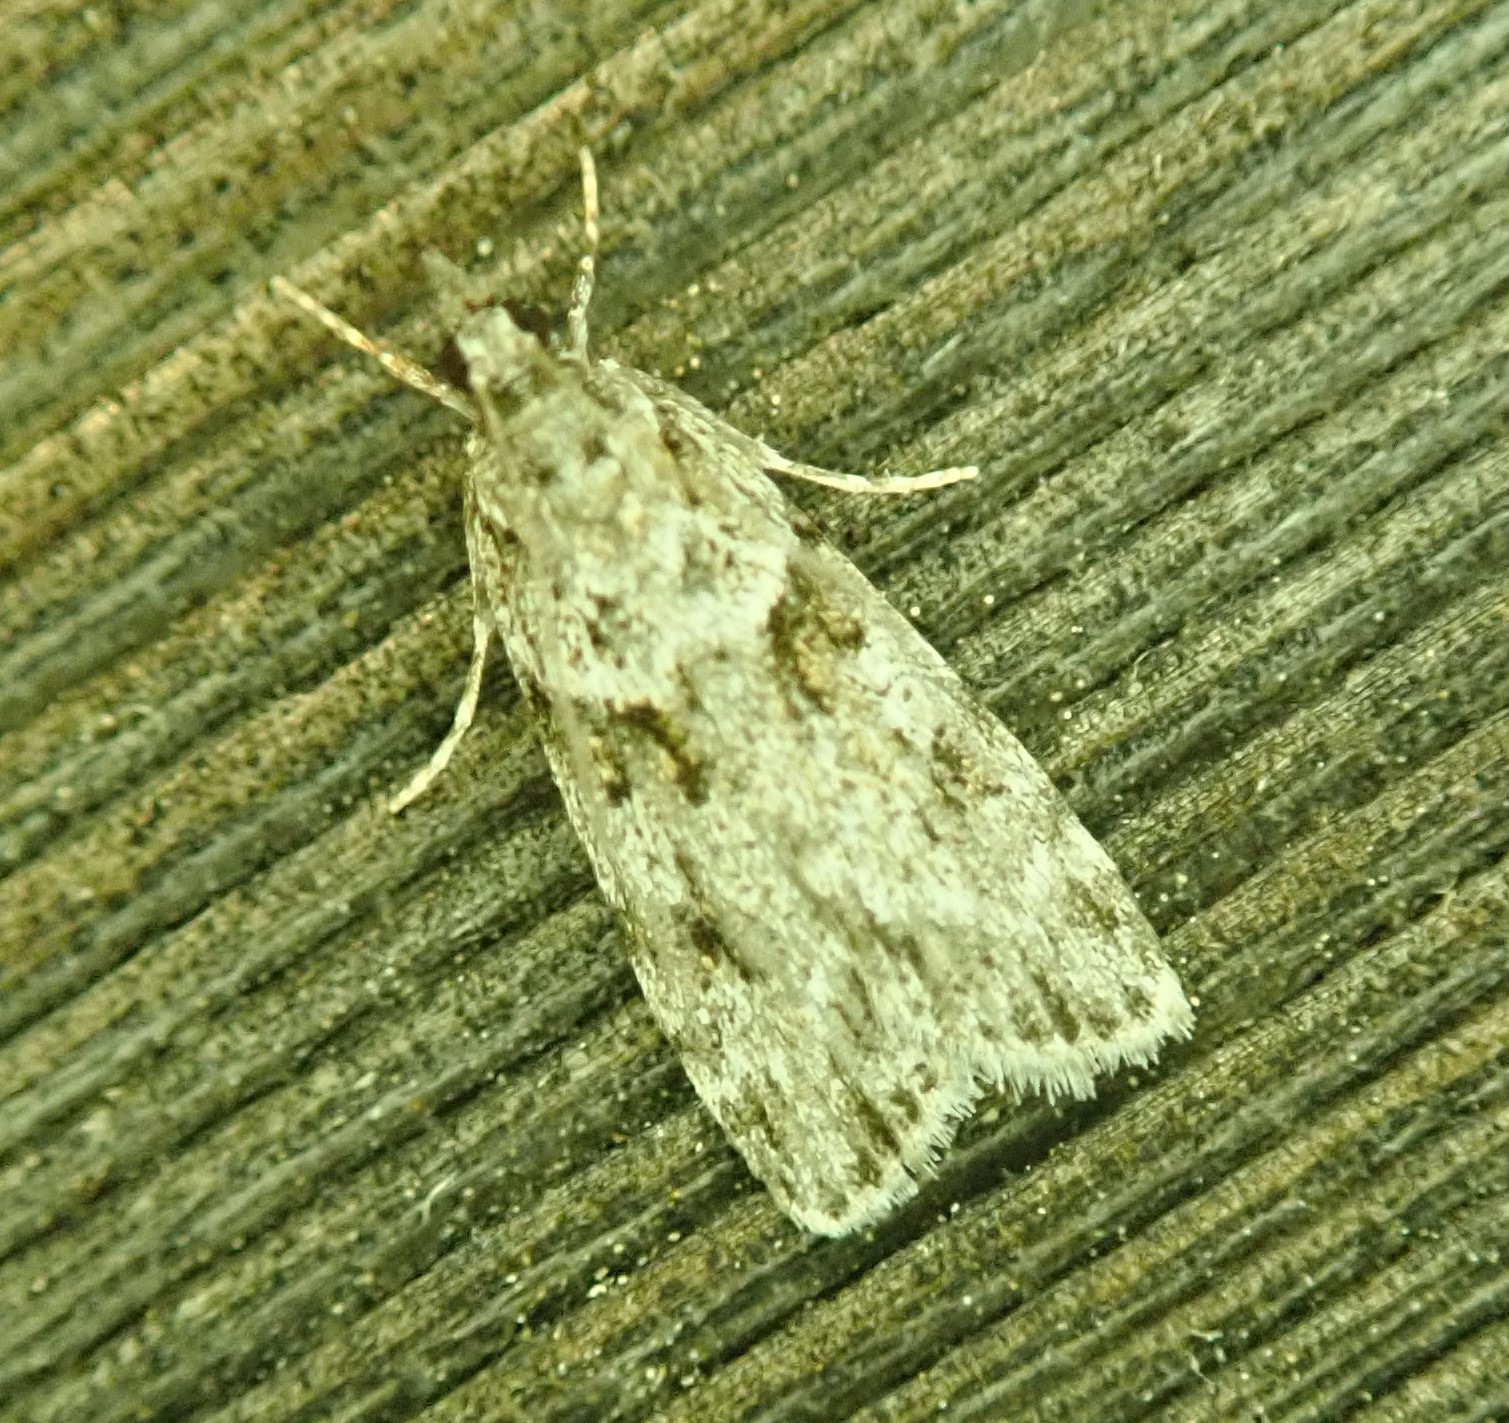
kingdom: Animalia
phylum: Arthropoda
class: Insecta
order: Lepidoptera
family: Crambidae
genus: Scoparia
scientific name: Scoparia biplagialis
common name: Double-striped scoparia moth
